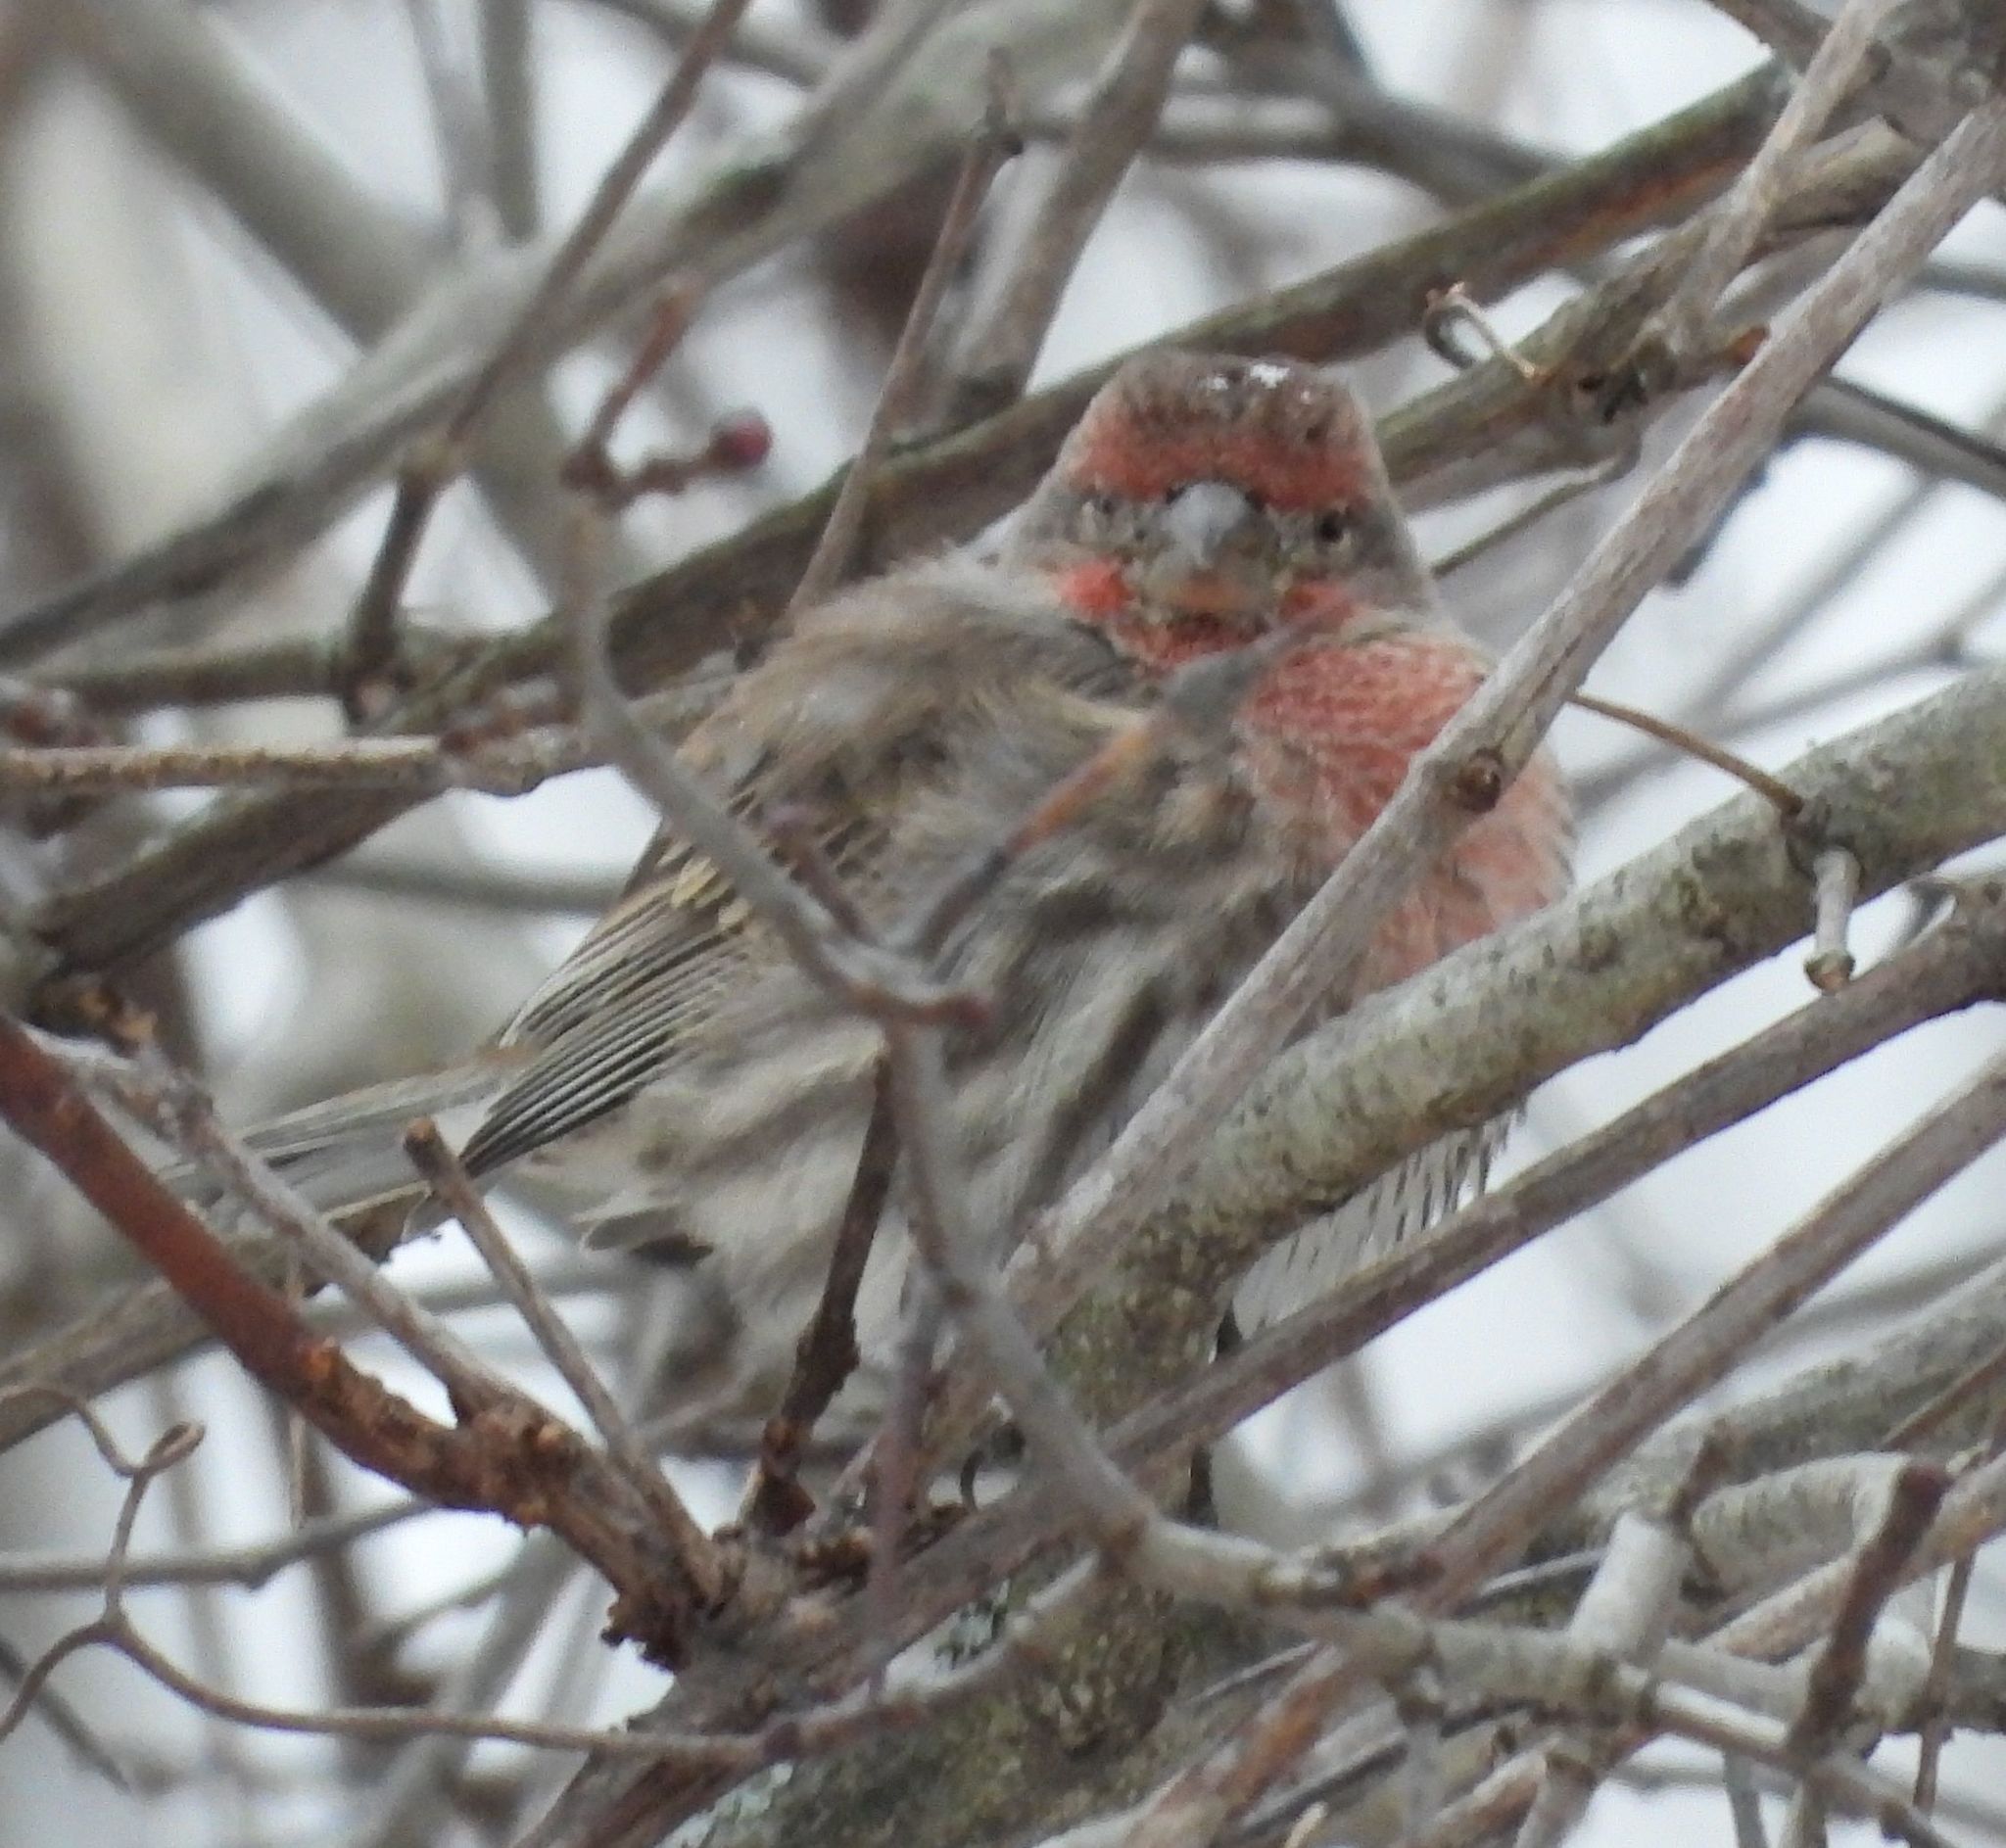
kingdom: Animalia
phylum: Chordata
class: Aves
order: Passeriformes
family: Fringillidae
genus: Haemorhous
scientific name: Haemorhous mexicanus
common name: House finch
